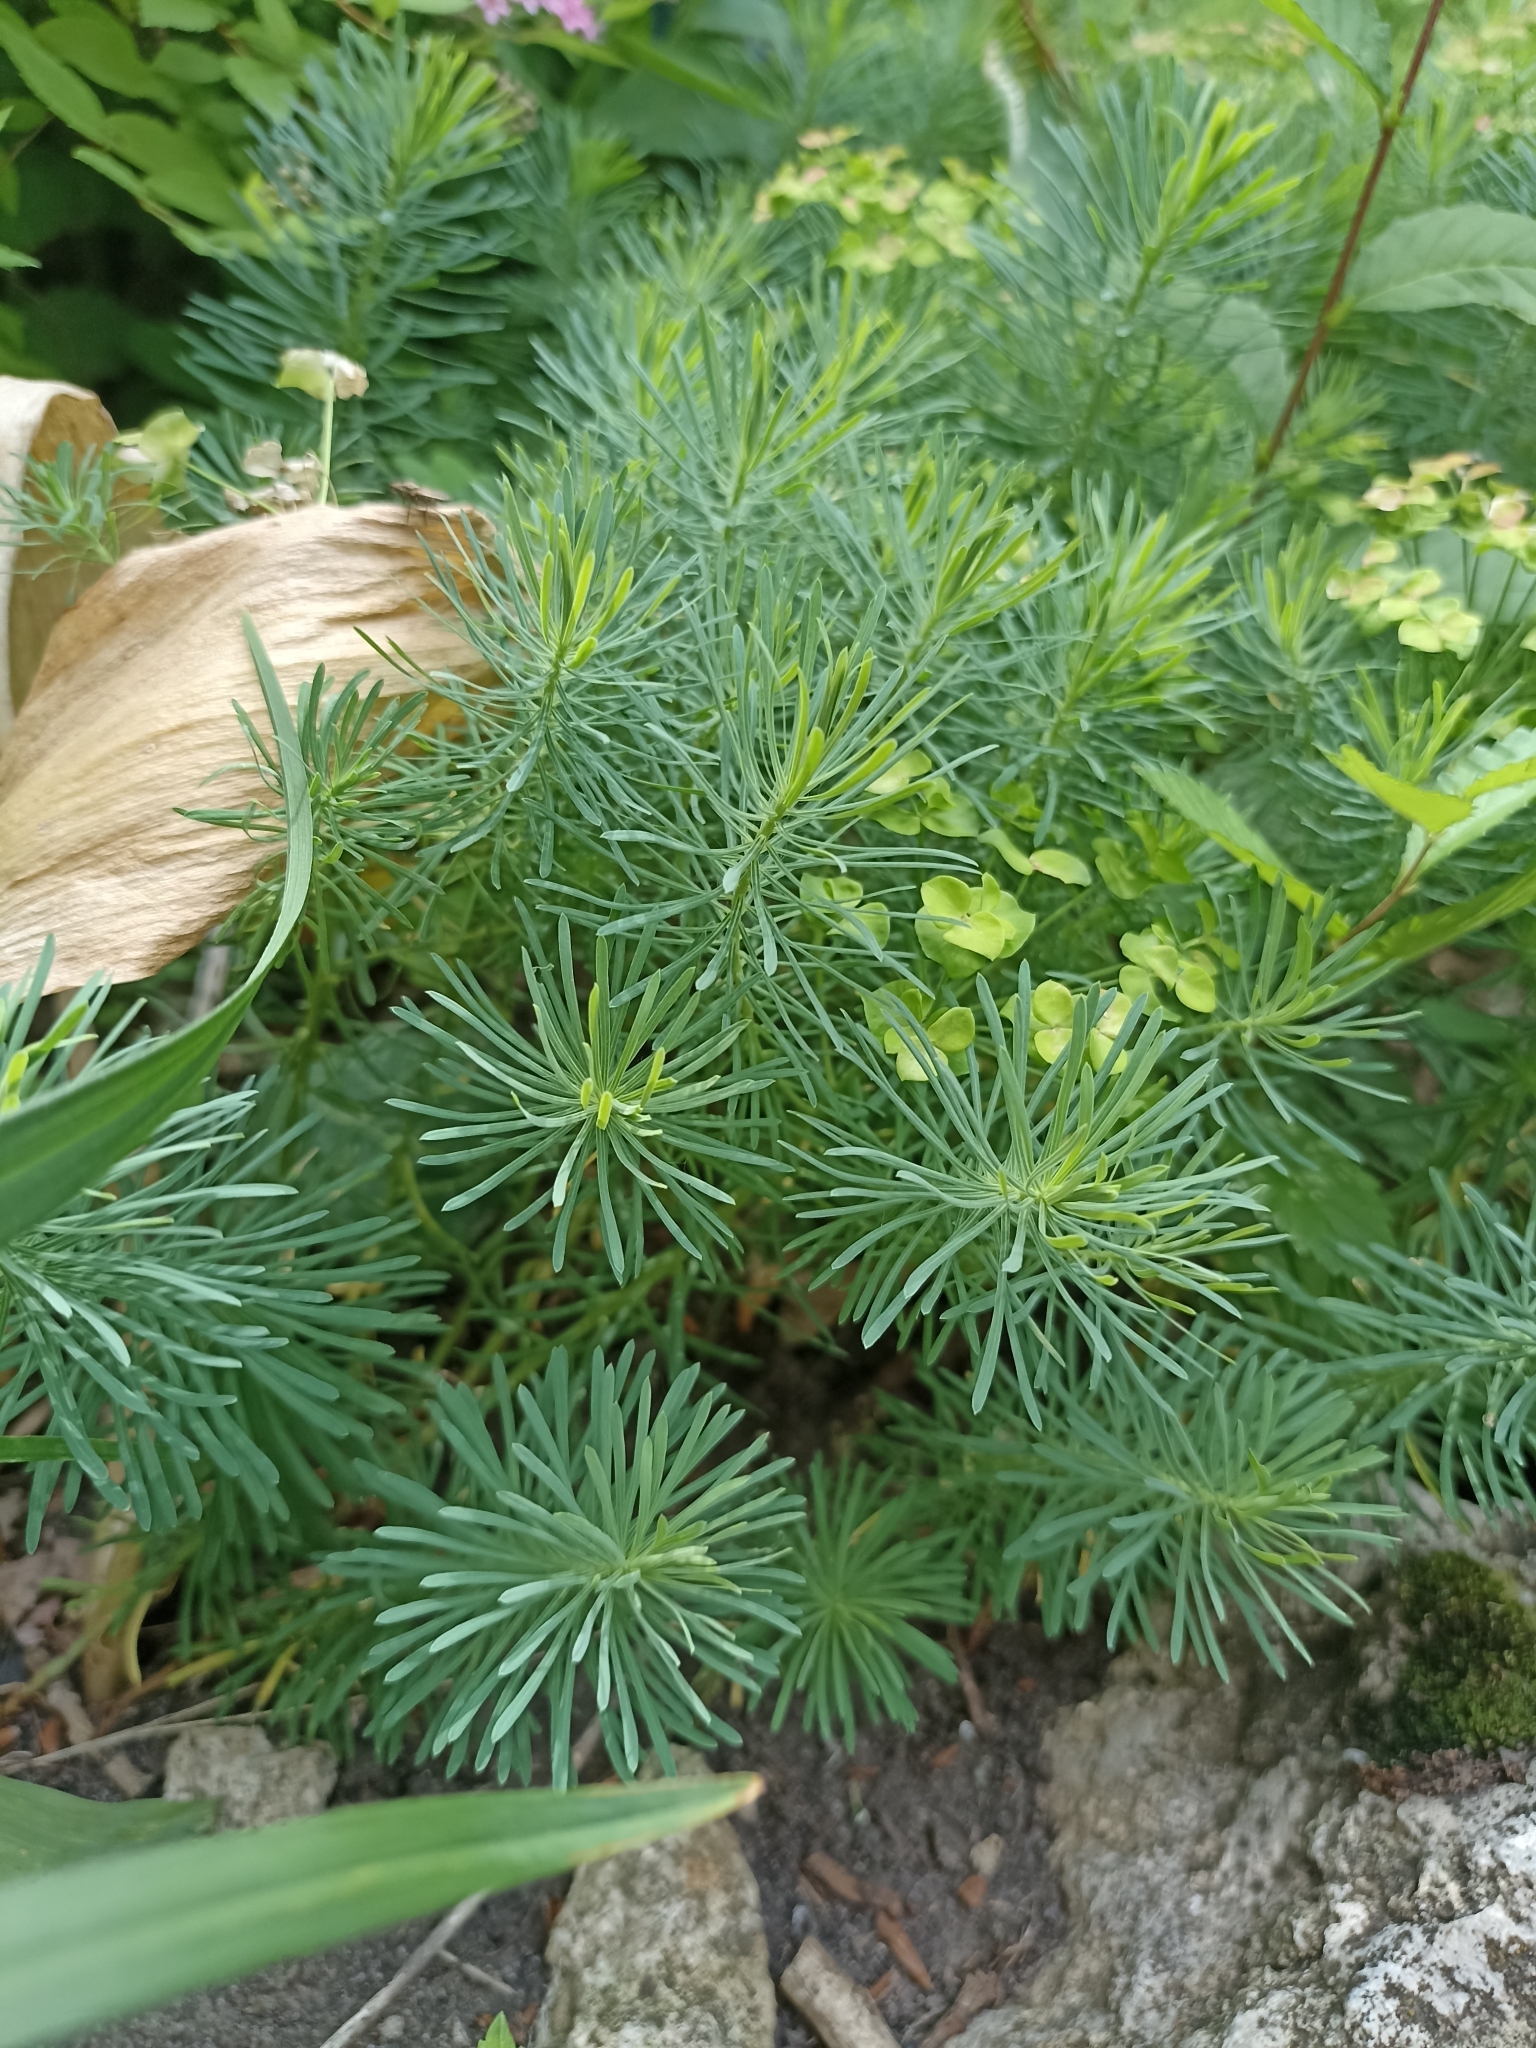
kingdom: Plantae
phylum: Tracheophyta
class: Magnoliopsida
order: Malpighiales
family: Euphorbiaceae
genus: Euphorbia
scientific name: Euphorbia cyparissias
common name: Cypress spurge
